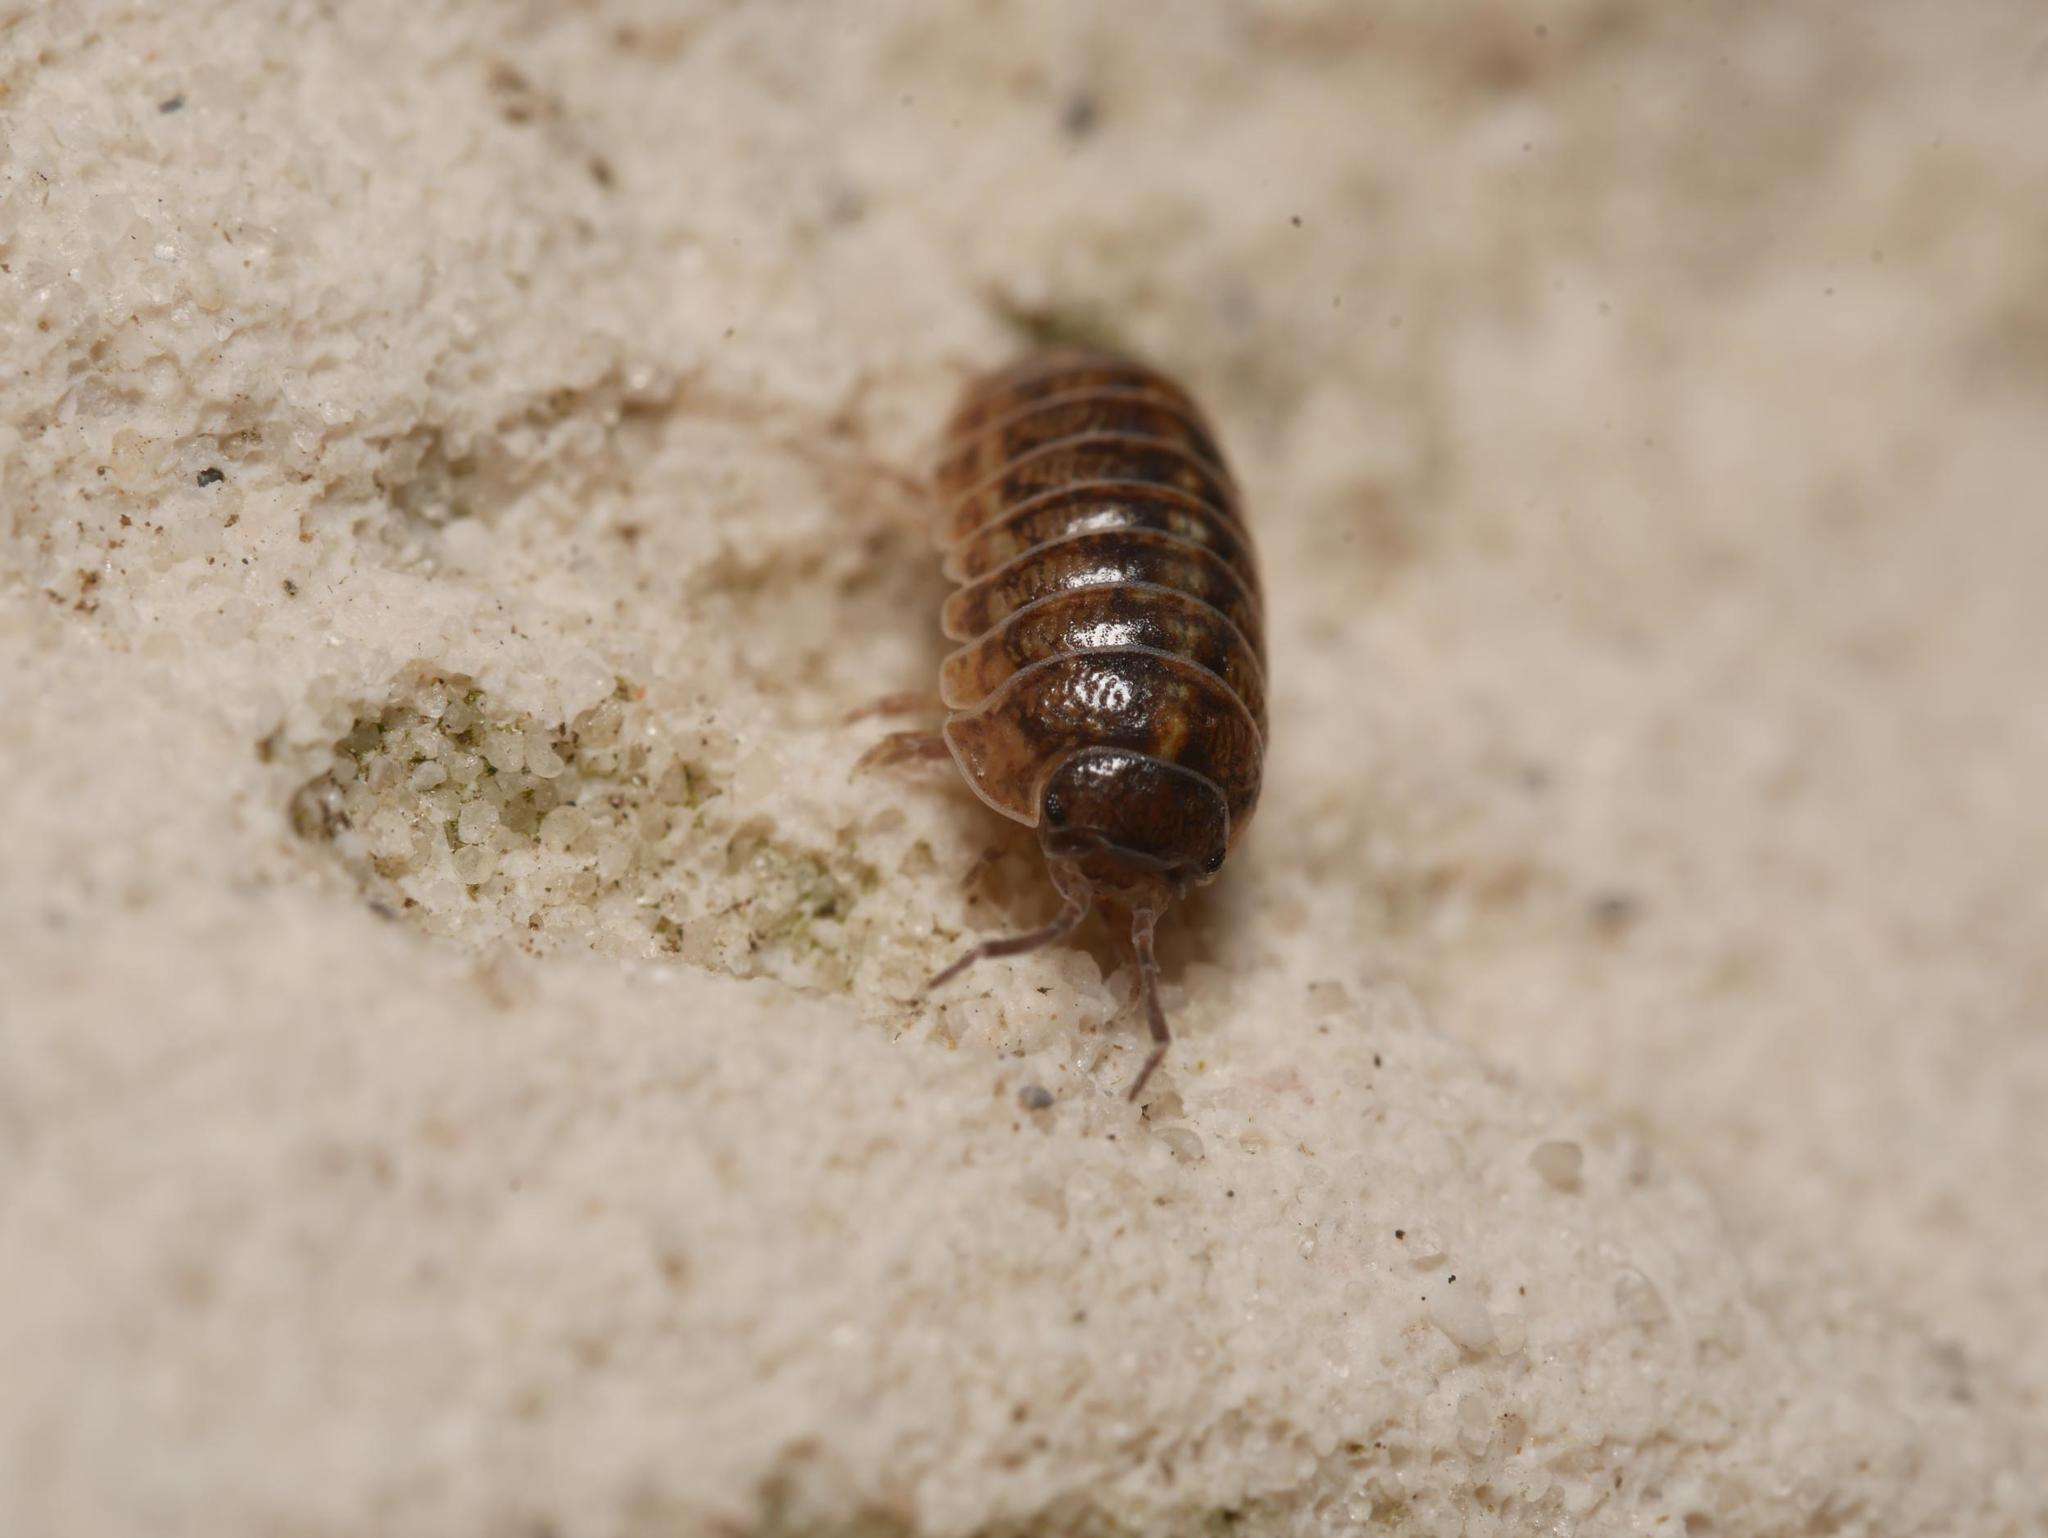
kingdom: Animalia
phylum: Arthropoda
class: Malacostraca
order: Isopoda
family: Armadillidiidae
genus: Armadillidium
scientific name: Armadillidium vulgare
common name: Common pill woodlouse
